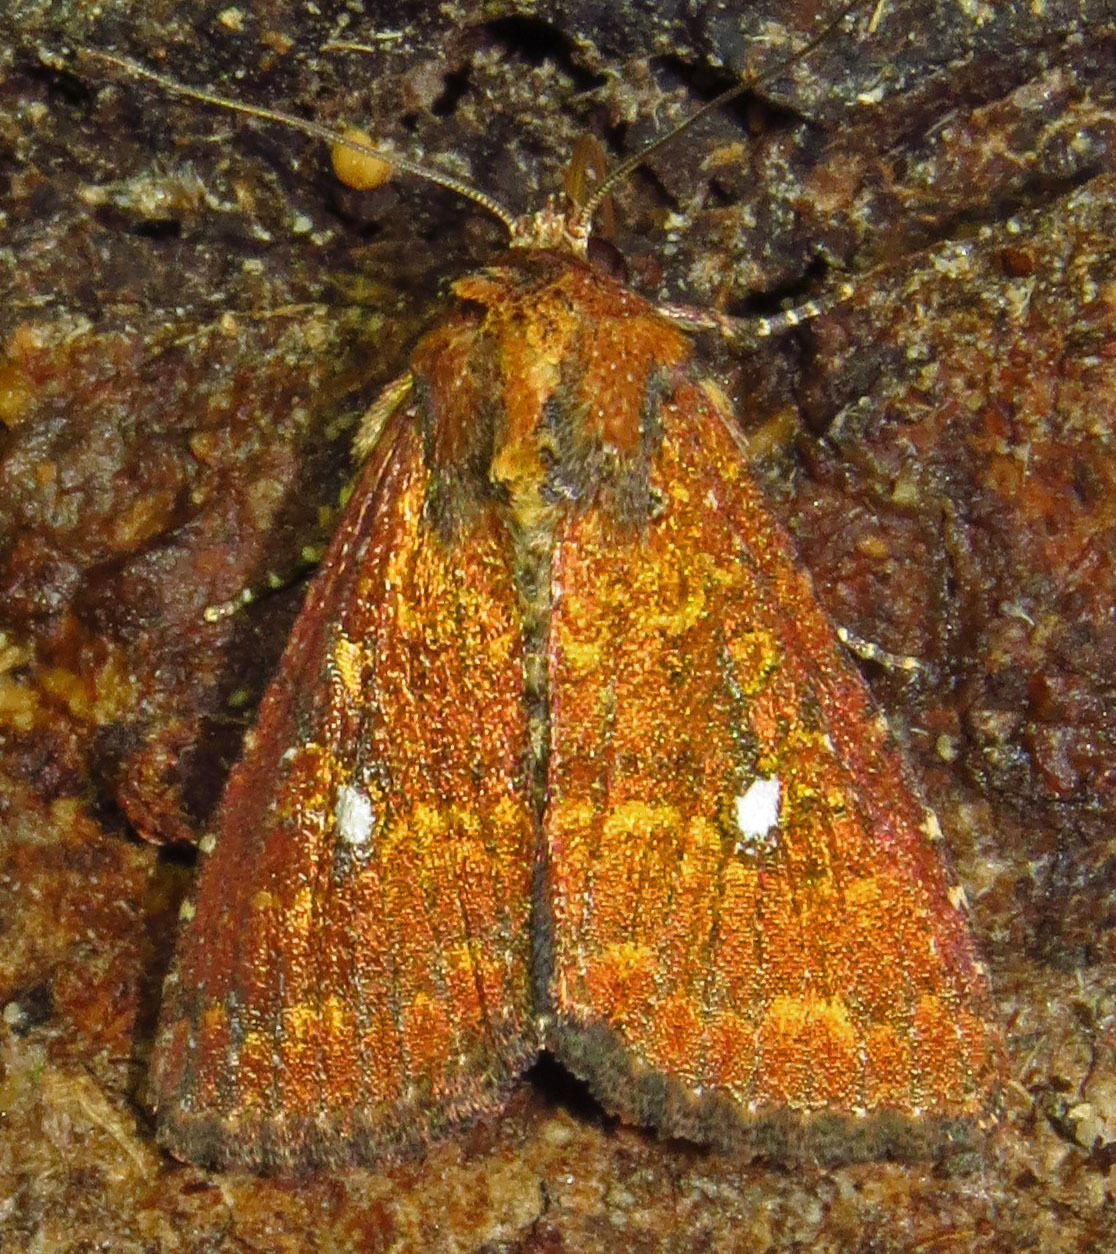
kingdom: Animalia
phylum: Arthropoda
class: Insecta
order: Lepidoptera
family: Noctuidae
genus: Condica
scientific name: Condica mobilis
